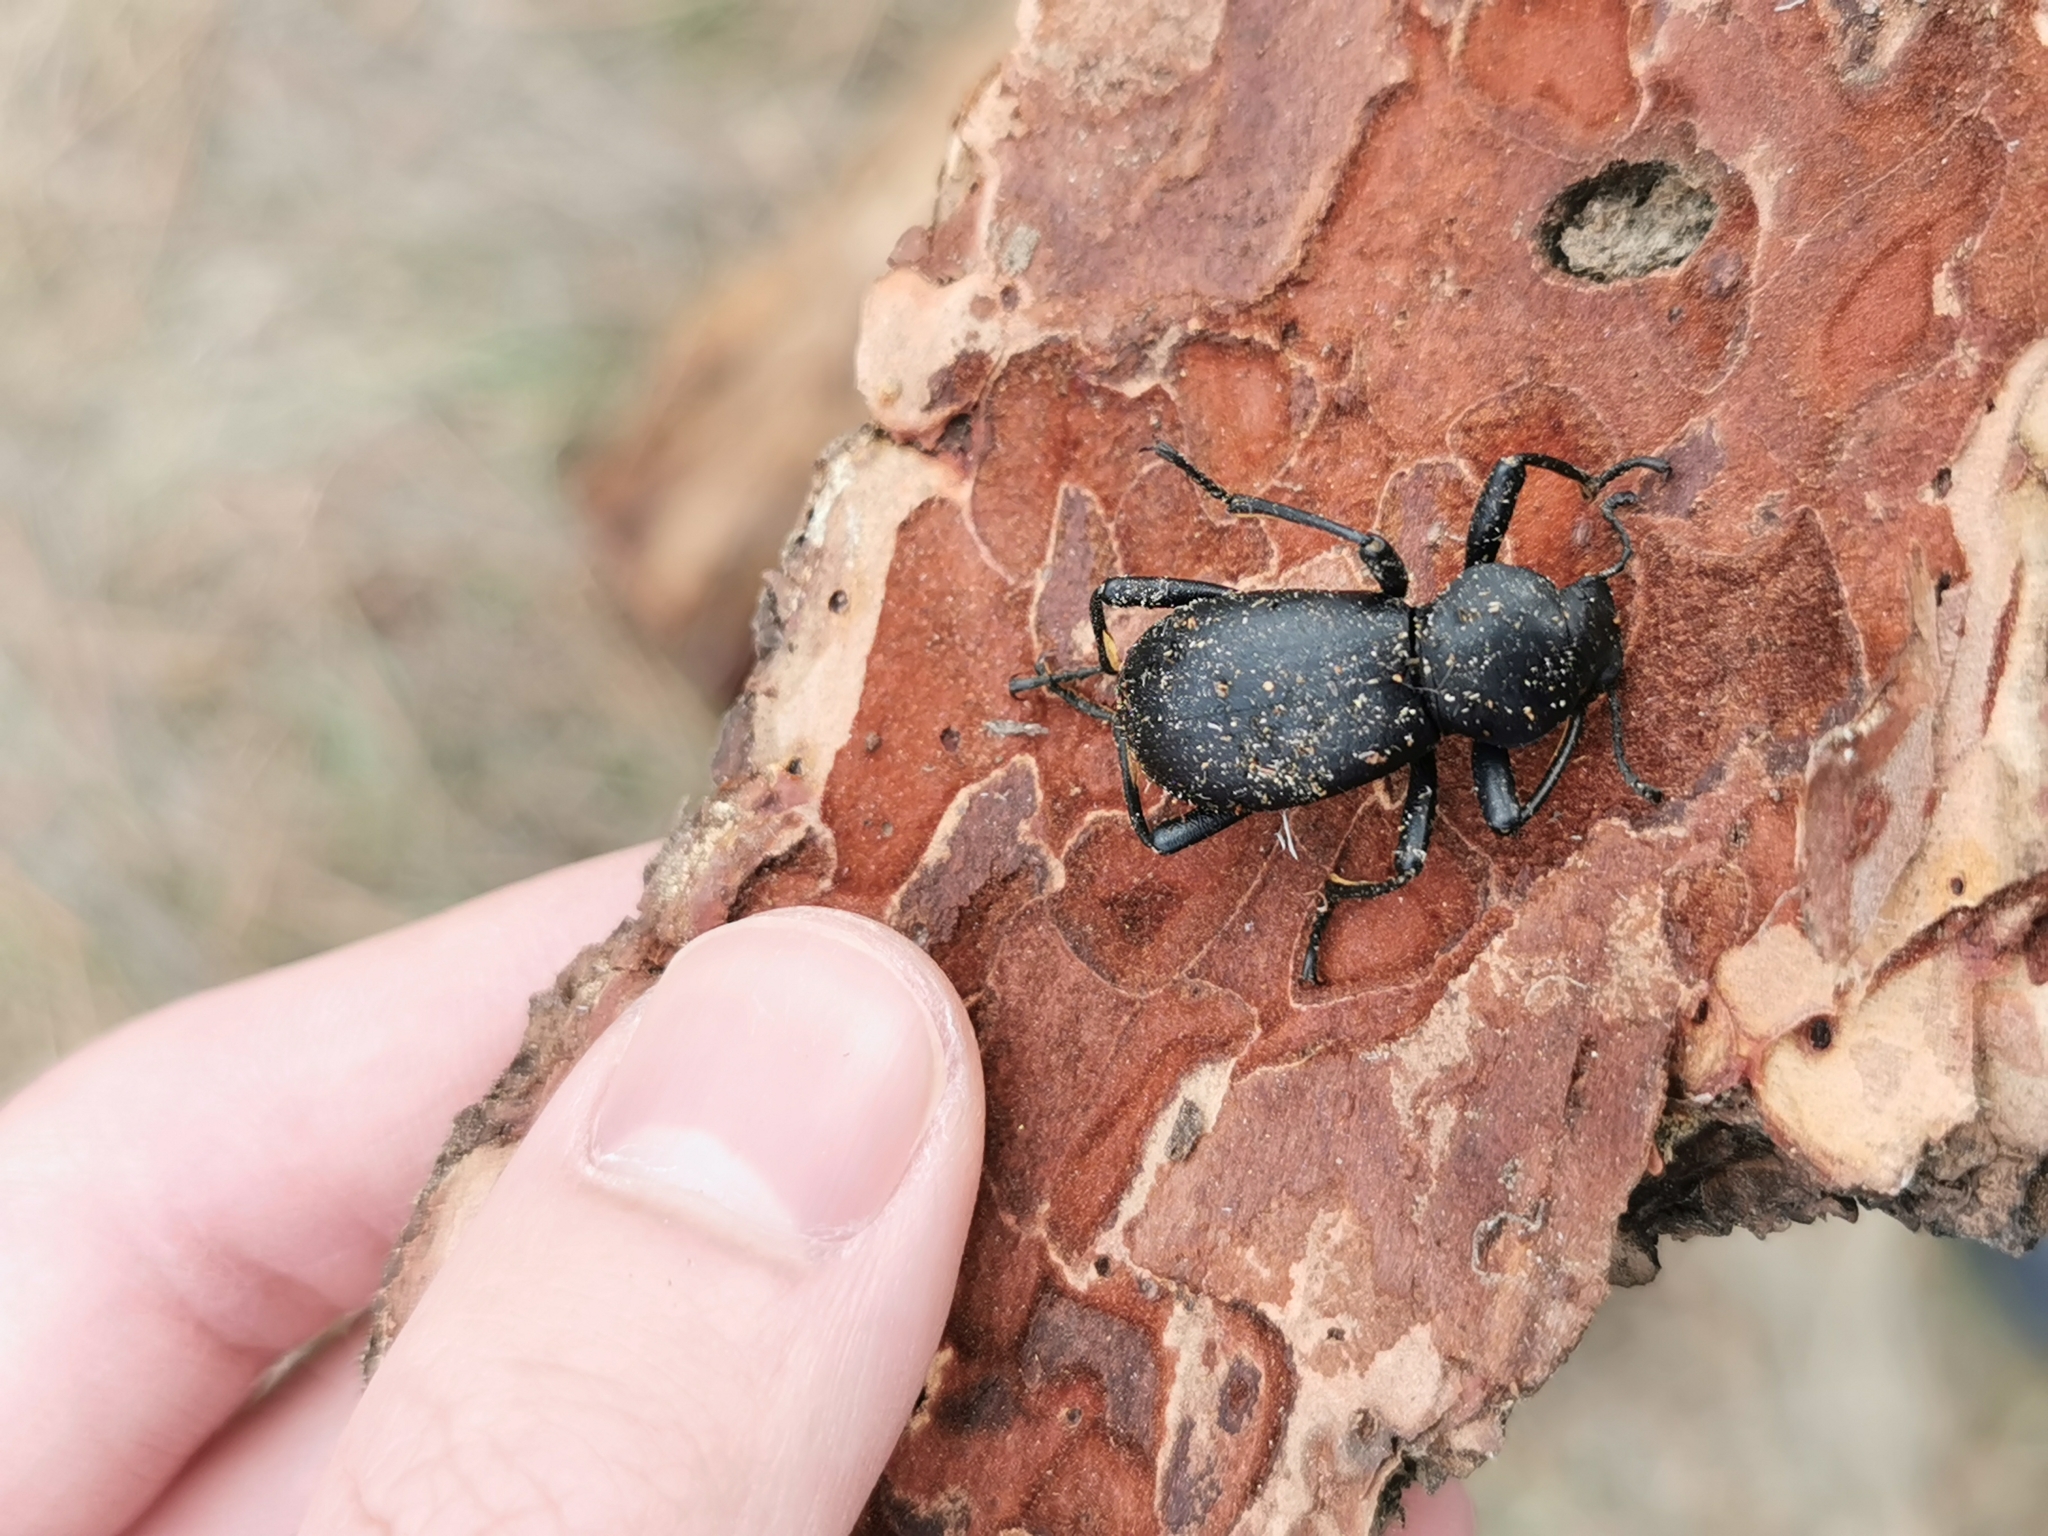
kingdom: Animalia
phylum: Arthropoda
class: Insecta
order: Coleoptera
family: Tenebrionidae
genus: Coelocnemis
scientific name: Coelocnemis dilaticollis
